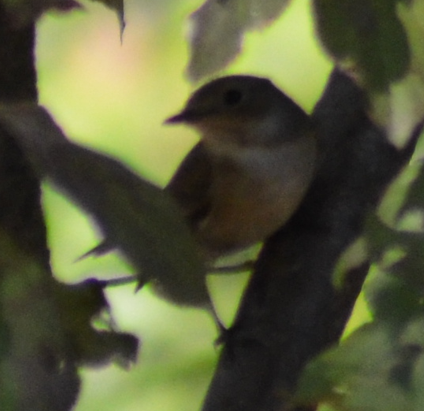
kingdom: Animalia
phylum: Chordata
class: Aves
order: Passeriformes
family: Muscicapidae
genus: Ficedula
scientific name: Ficedula hypoleuca
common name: European pied flycatcher
